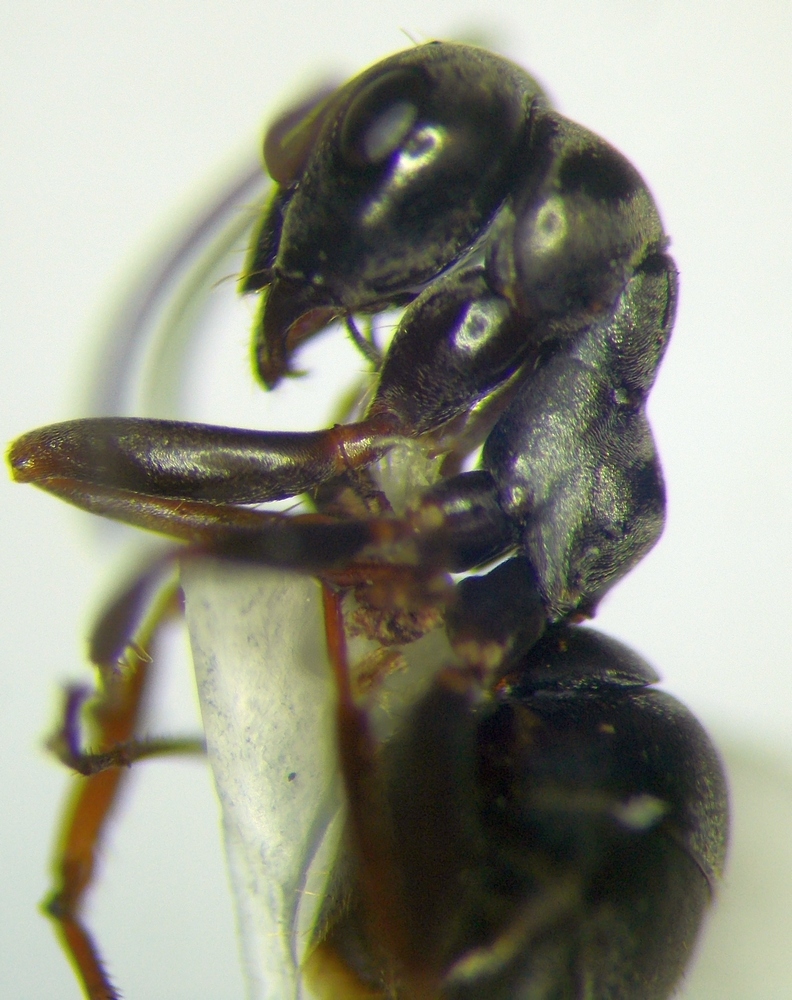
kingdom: Animalia
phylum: Arthropoda
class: Insecta
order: Hymenoptera
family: Formicidae
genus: Formica
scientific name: Formica fusca
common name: Silky ant
